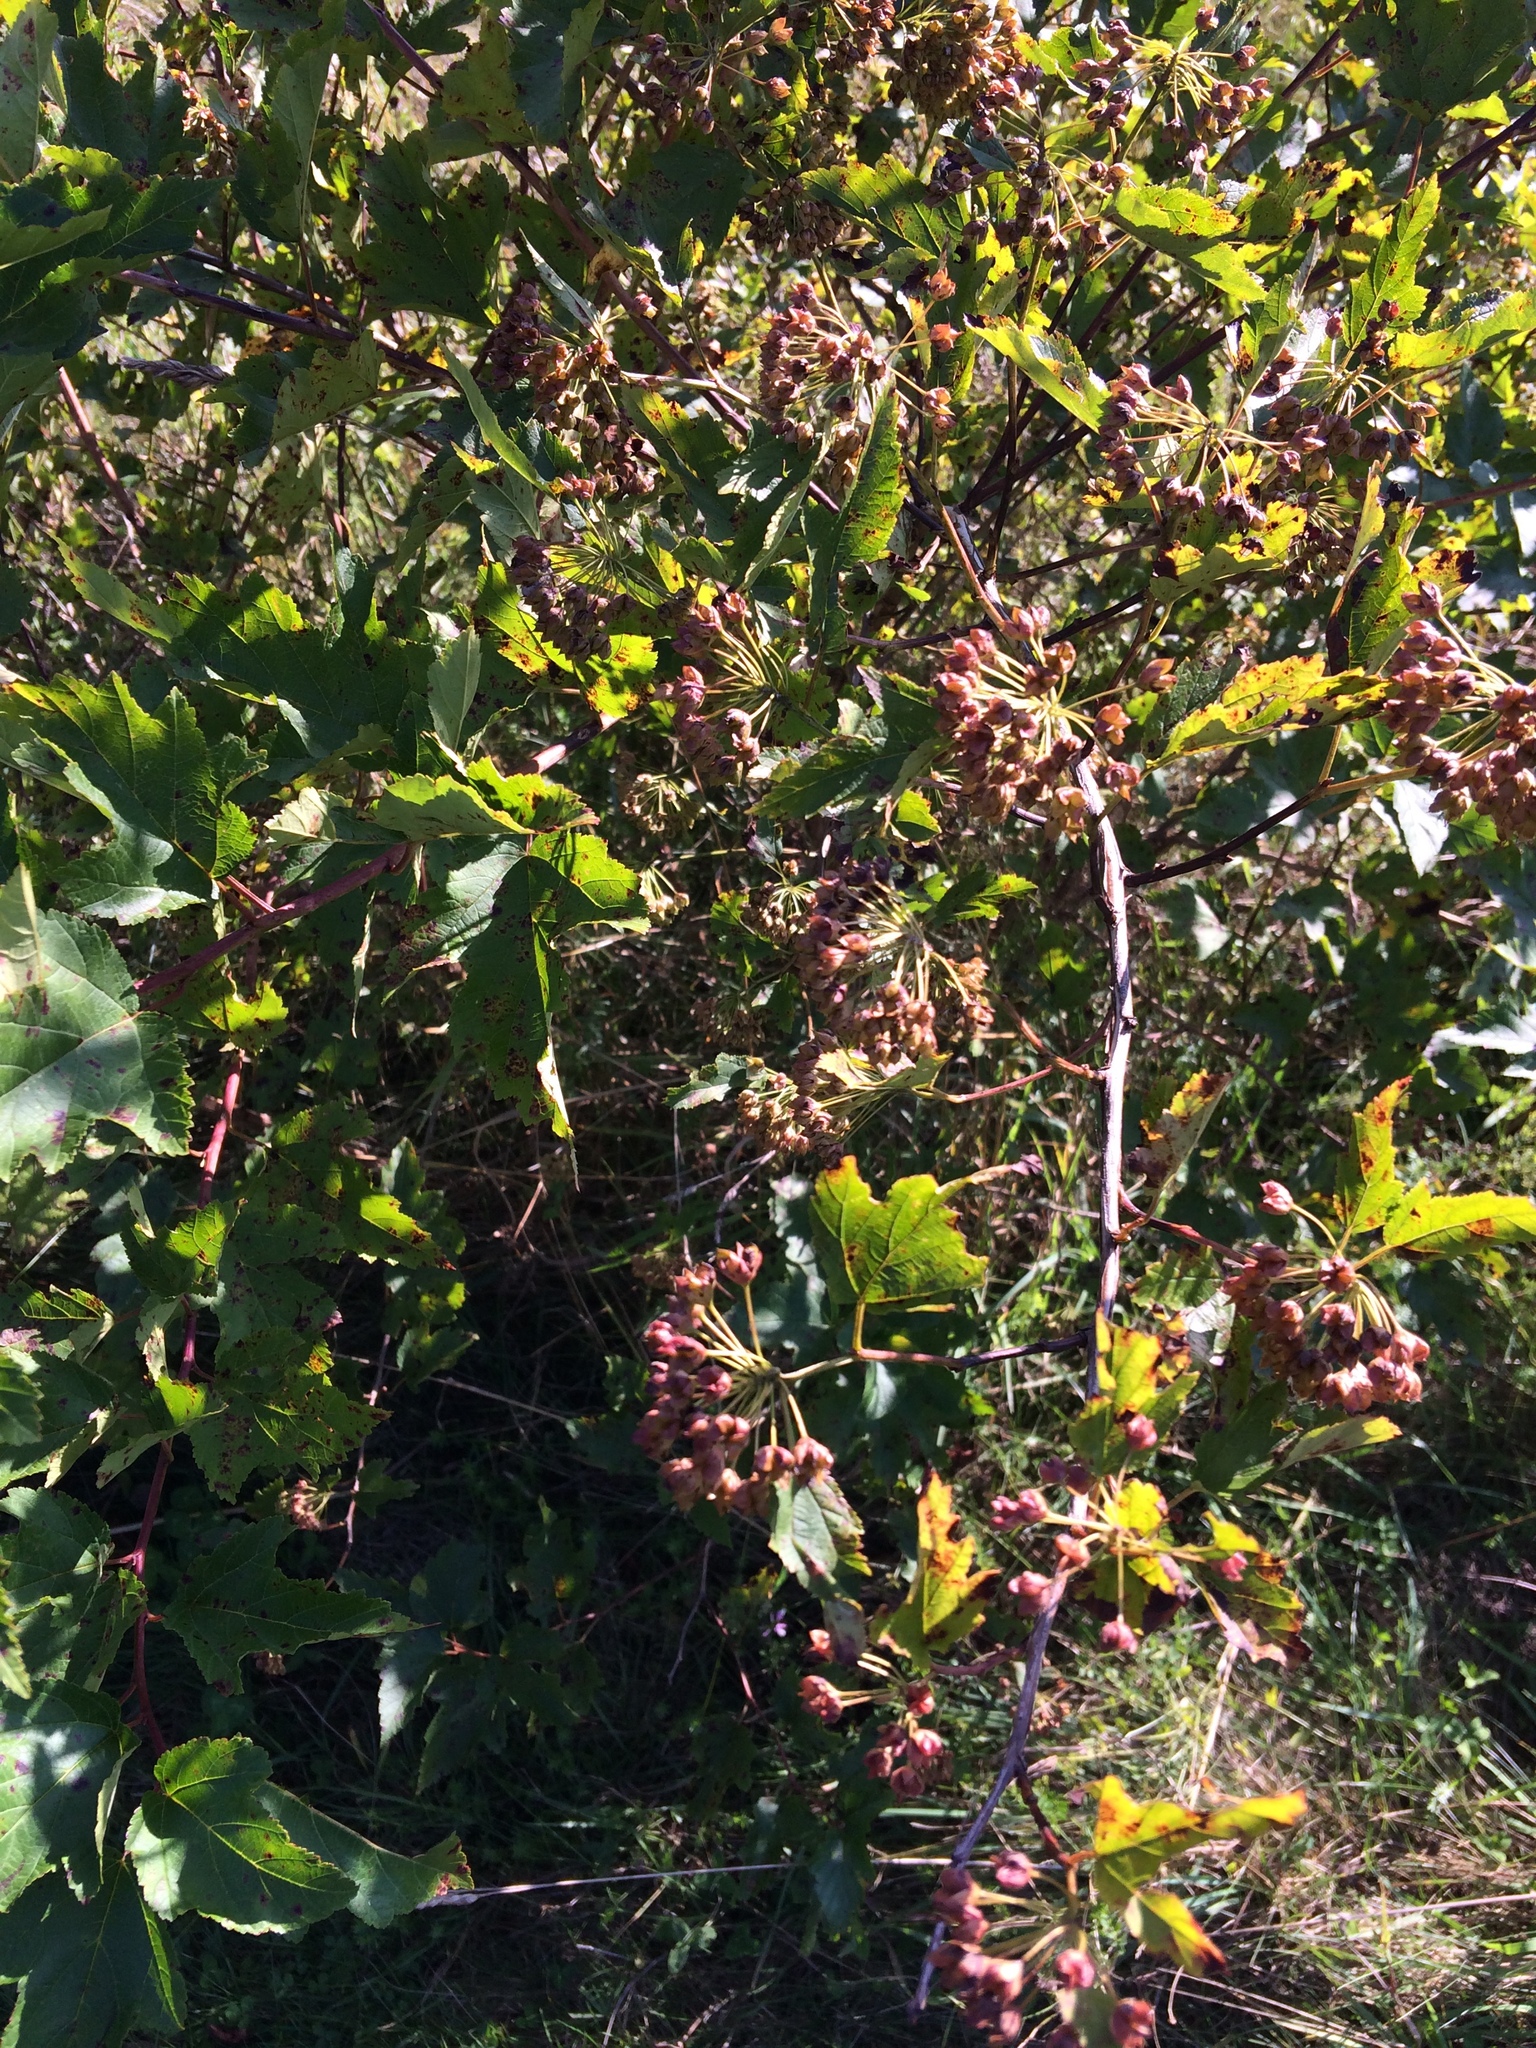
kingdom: Plantae
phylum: Tracheophyta
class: Magnoliopsida
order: Rosales
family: Rosaceae
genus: Physocarpus
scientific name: Physocarpus opulifolius
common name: Ninebark
